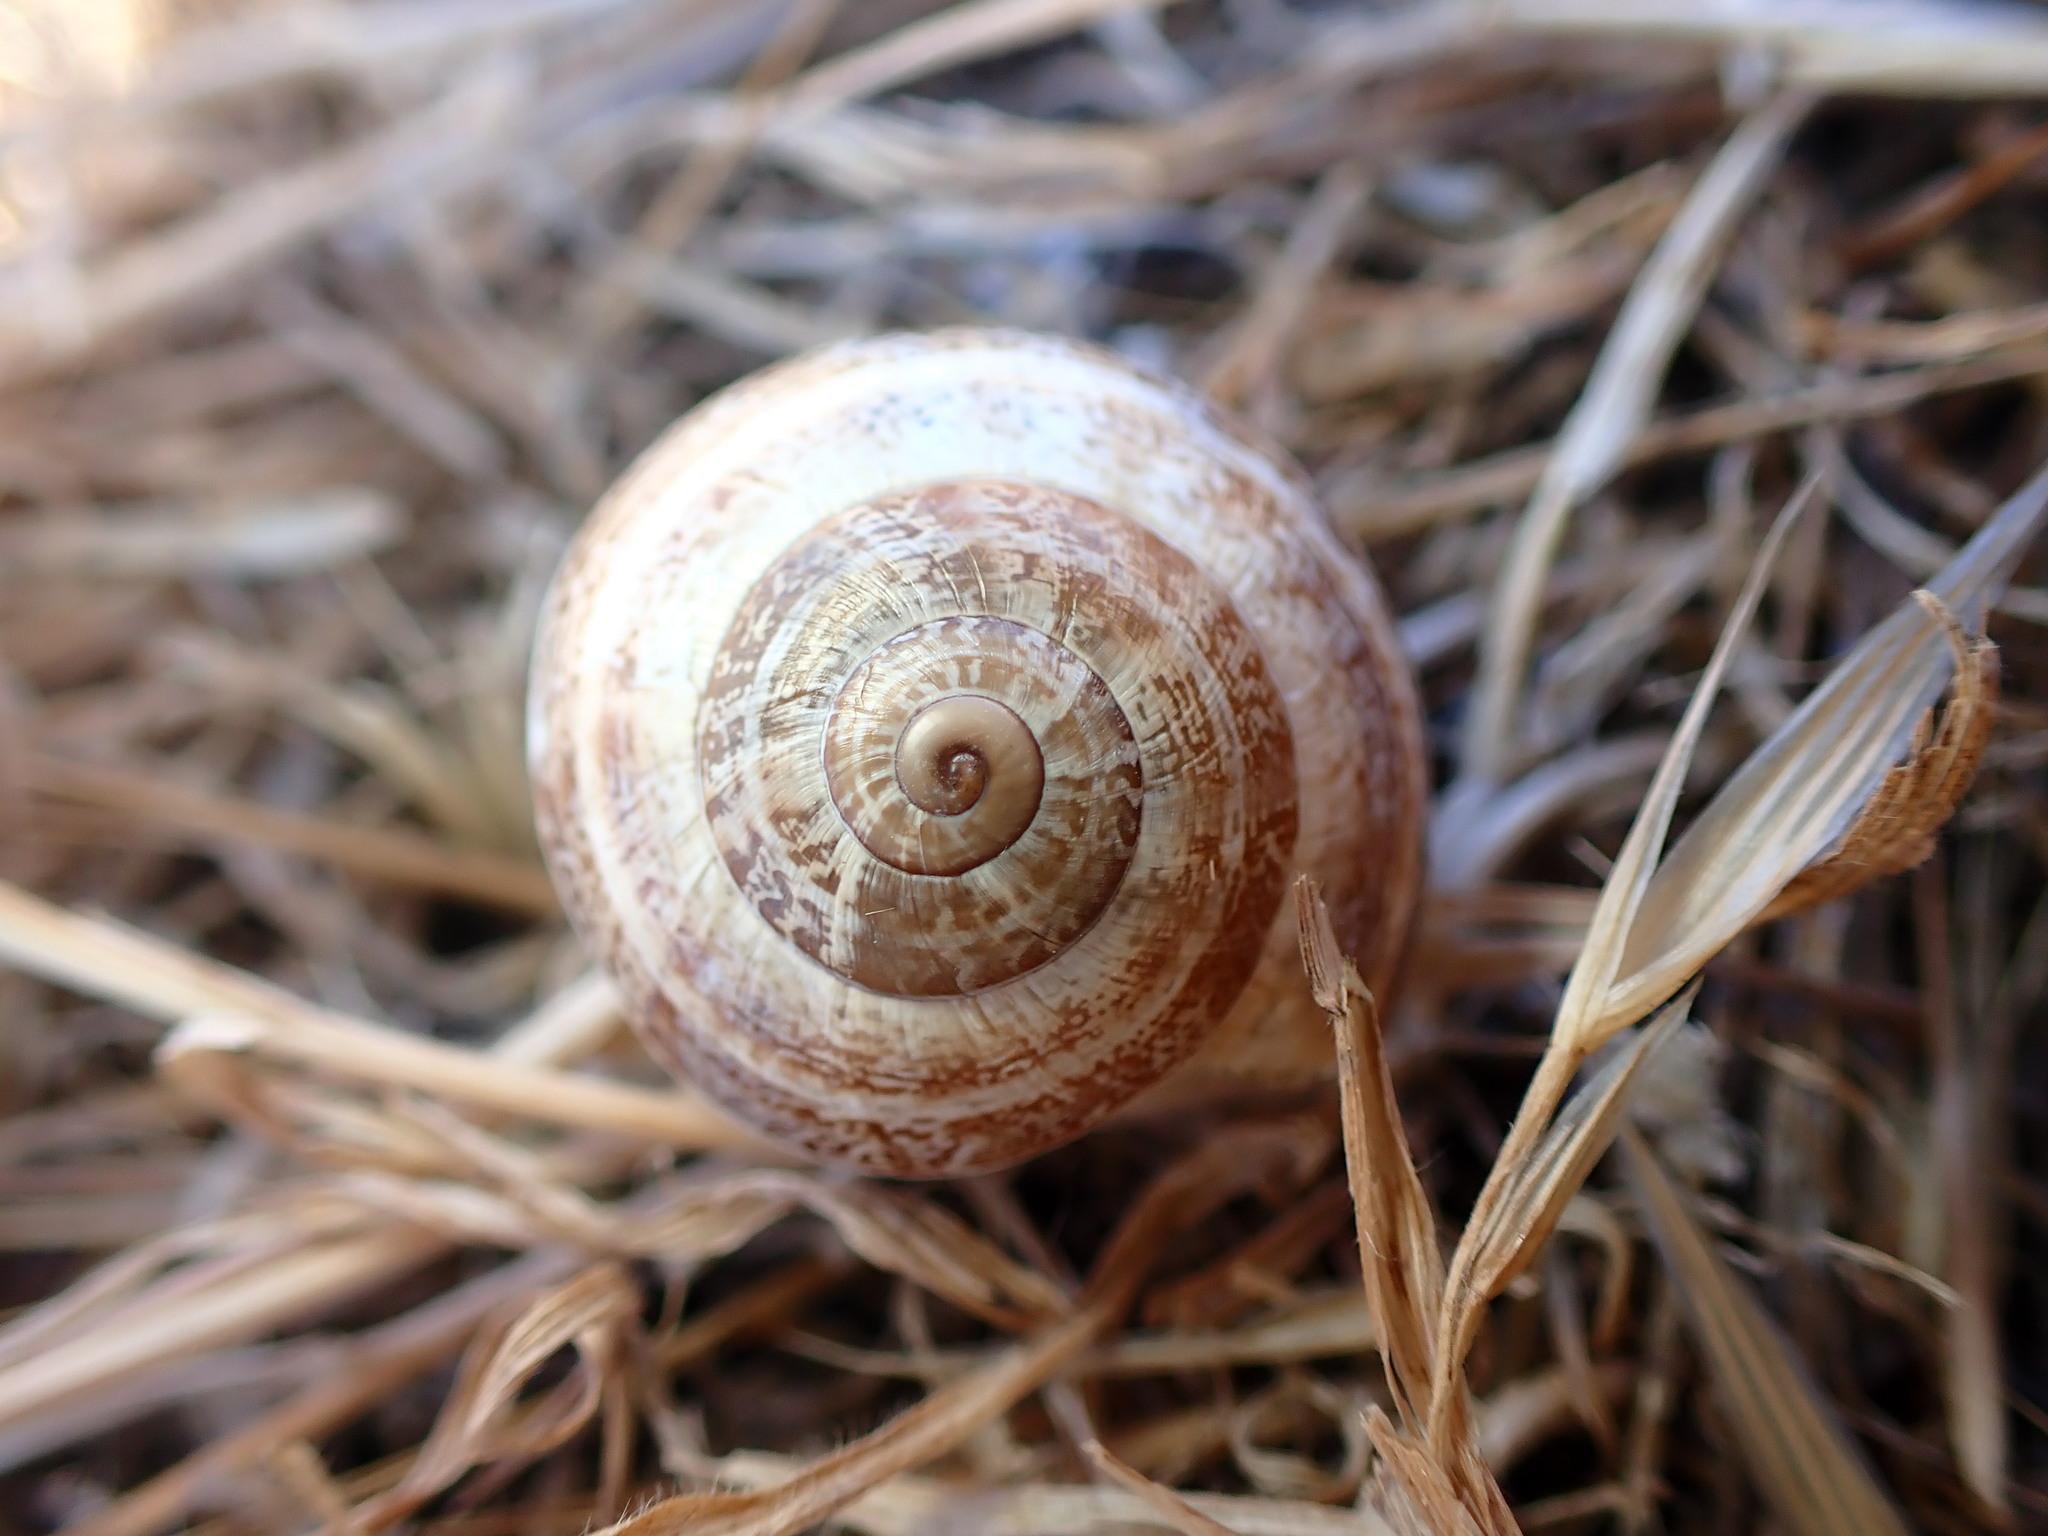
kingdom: Animalia
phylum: Mollusca
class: Gastropoda
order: Stylommatophora
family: Helicidae
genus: Otala
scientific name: Otala lactea
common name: Milk snail
